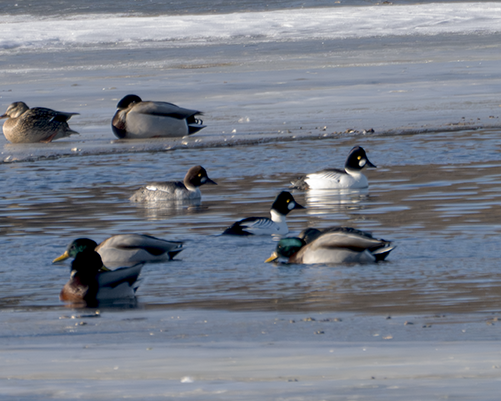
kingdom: Animalia
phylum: Chordata
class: Aves
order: Anseriformes
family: Anatidae
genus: Bucephala
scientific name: Bucephala clangula
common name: Common goldeneye
